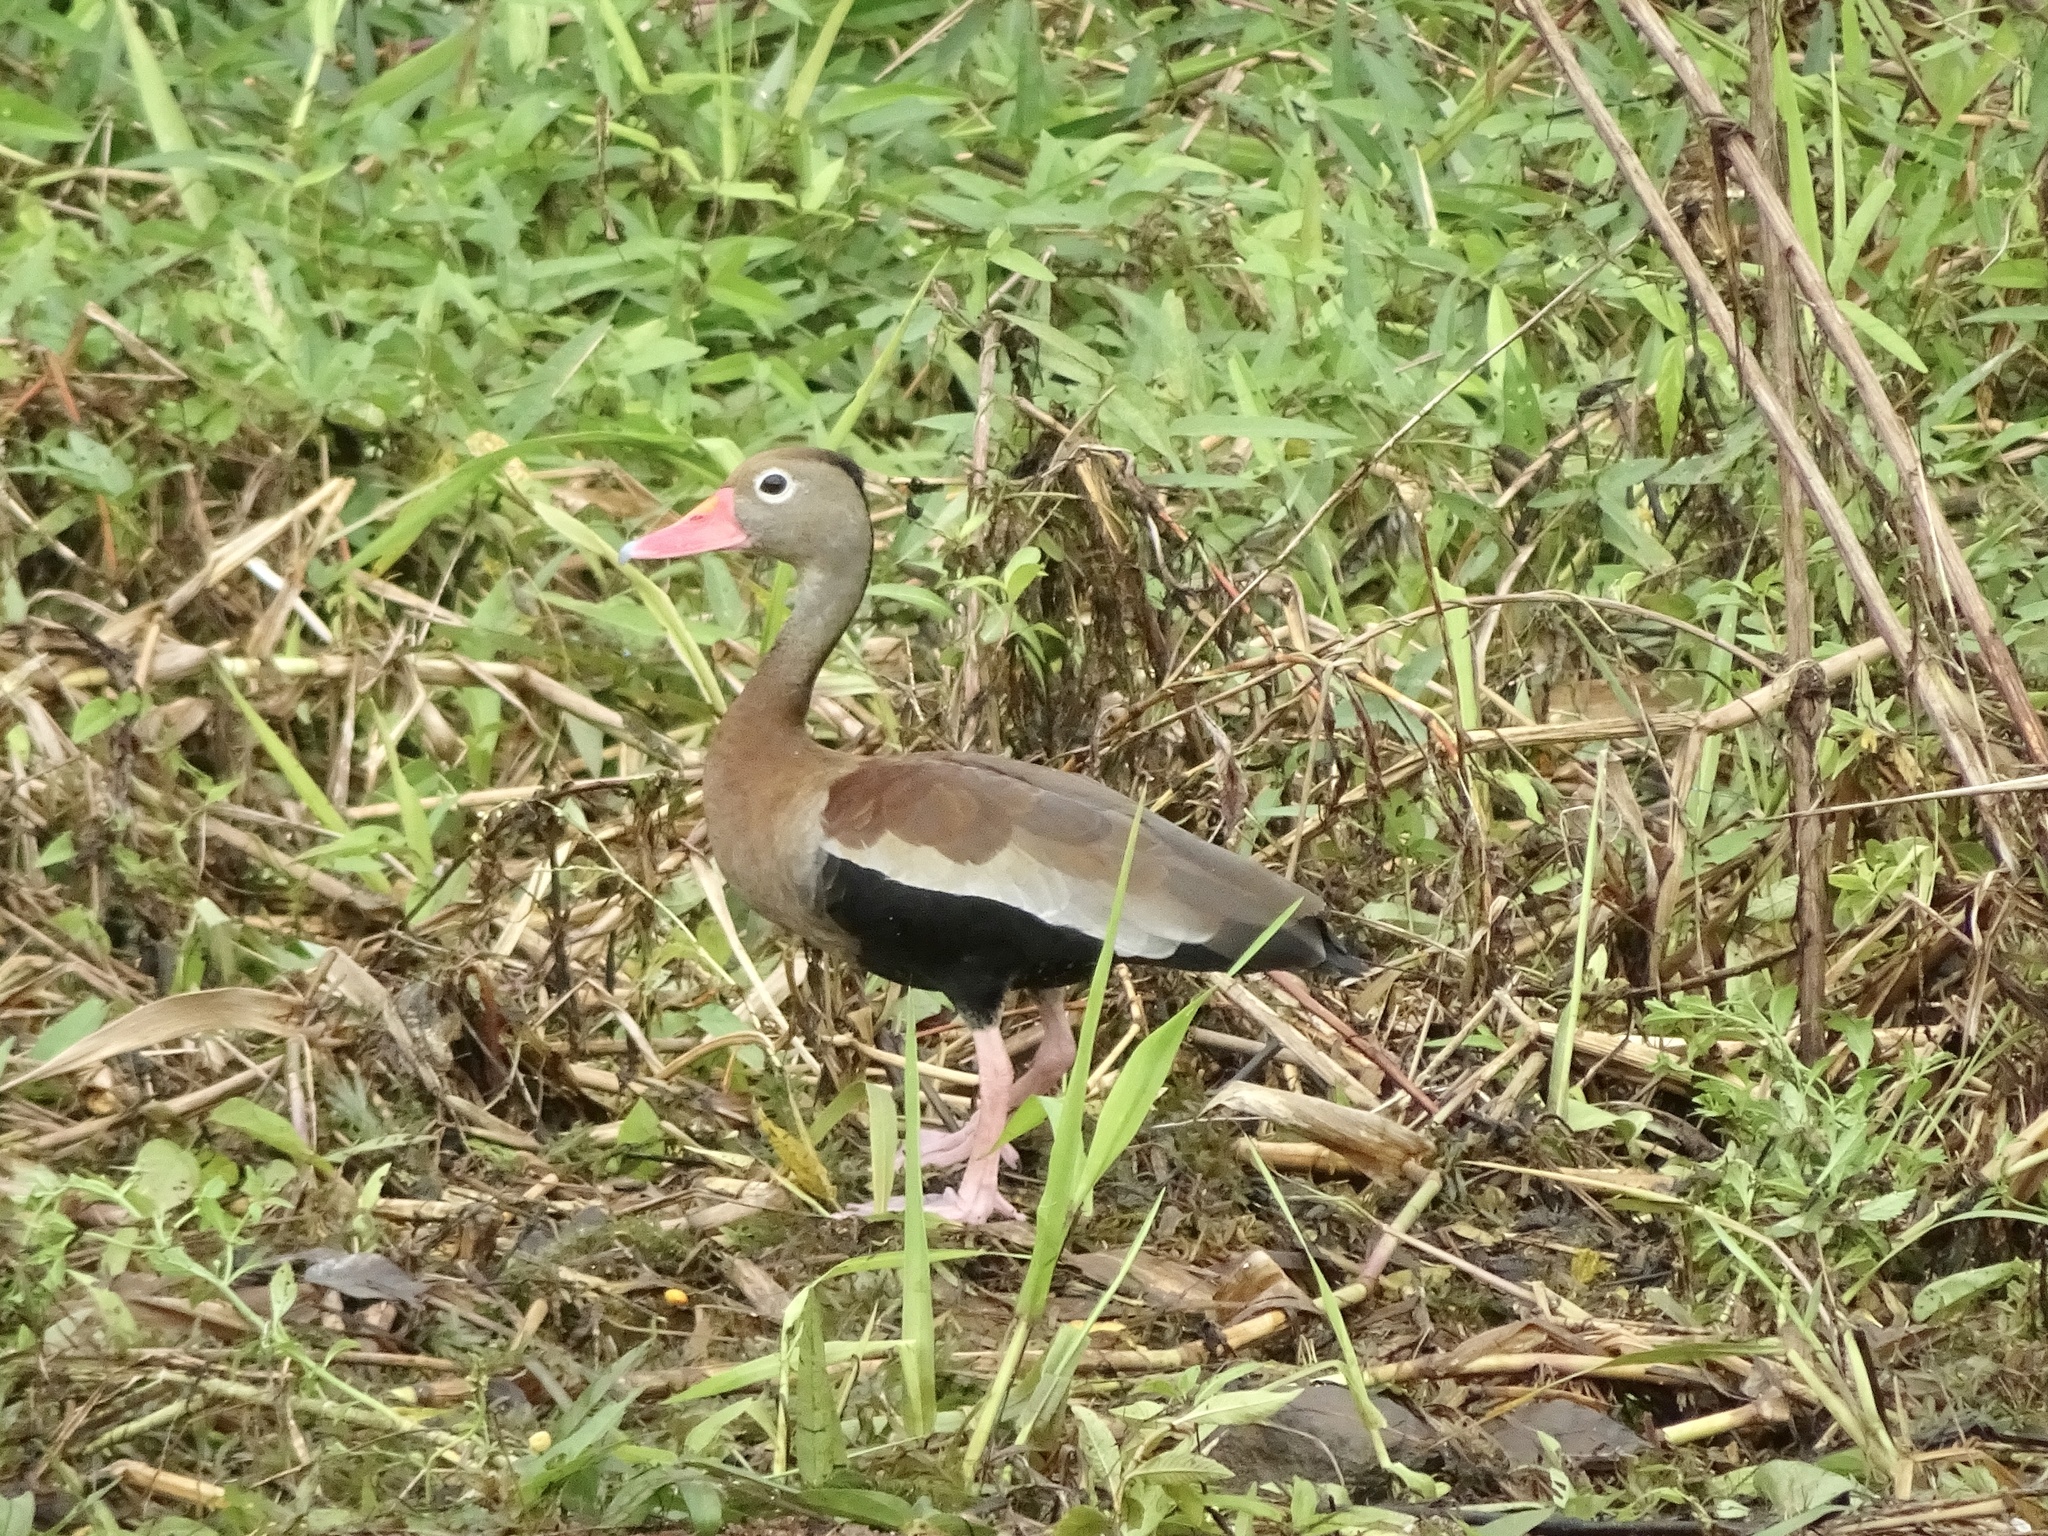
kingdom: Animalia
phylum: Chordata
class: Aves
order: Anseriformes
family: Anatidae
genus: Dendrocygna
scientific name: Dendrocygna autumnalis
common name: Black-bellied whistling duck
